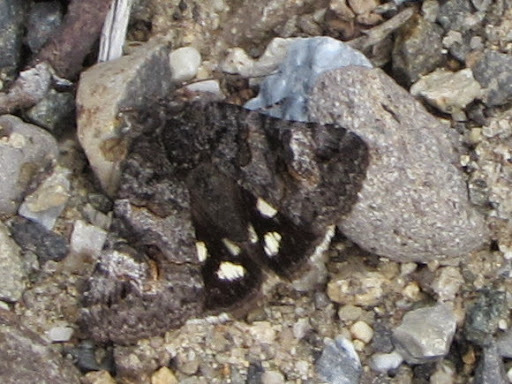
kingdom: Animalia
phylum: Arthropoda
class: Insecta
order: Lepidoptera
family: Erebidae
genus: Litocala
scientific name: Litocala sexsignata
